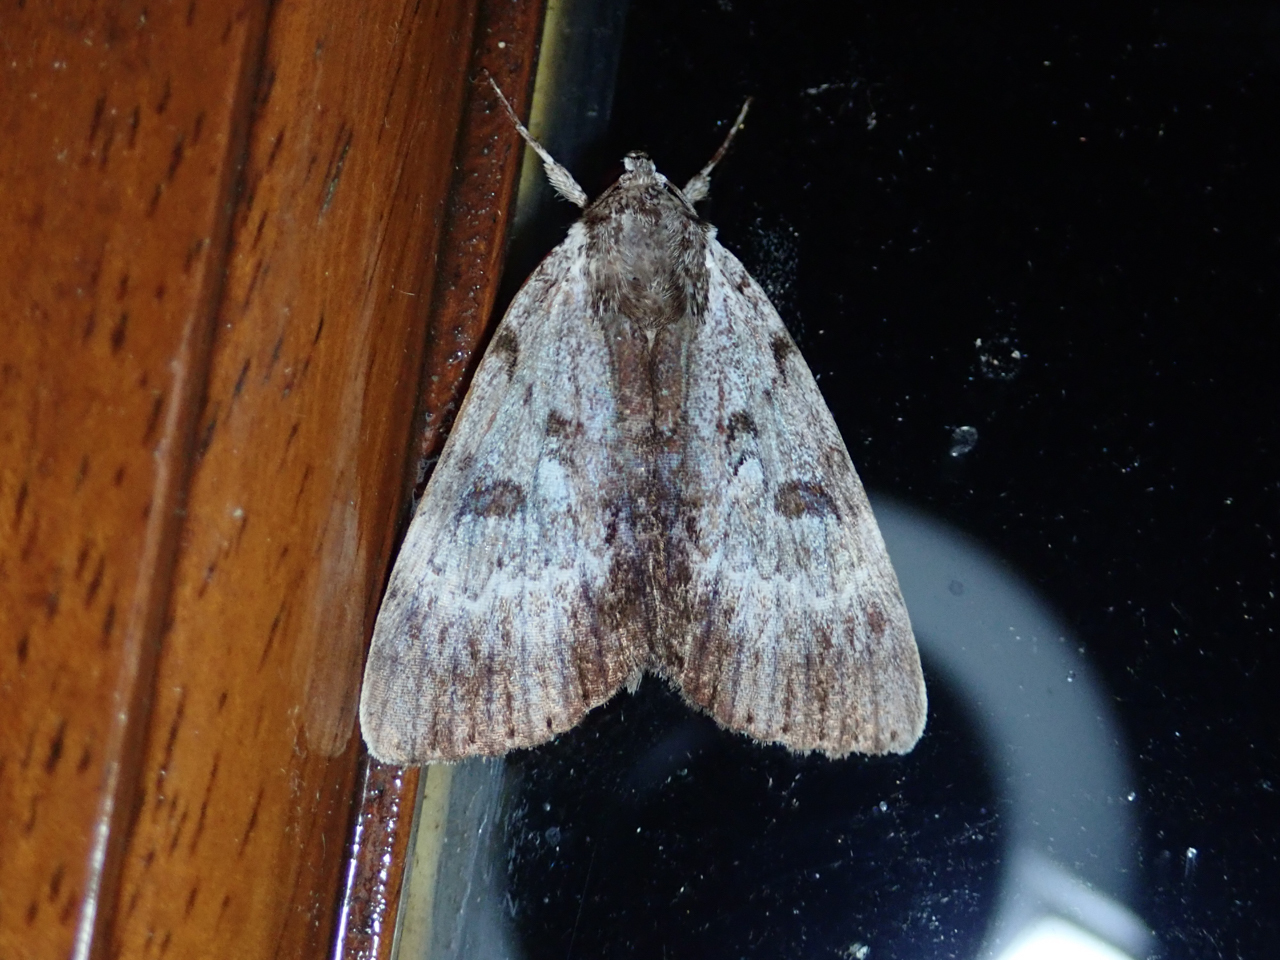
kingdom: Animalia
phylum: Arthropoda
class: Insecta
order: Lepidoptera
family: Erebidae
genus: Catocala
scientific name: Catocala andromedae
